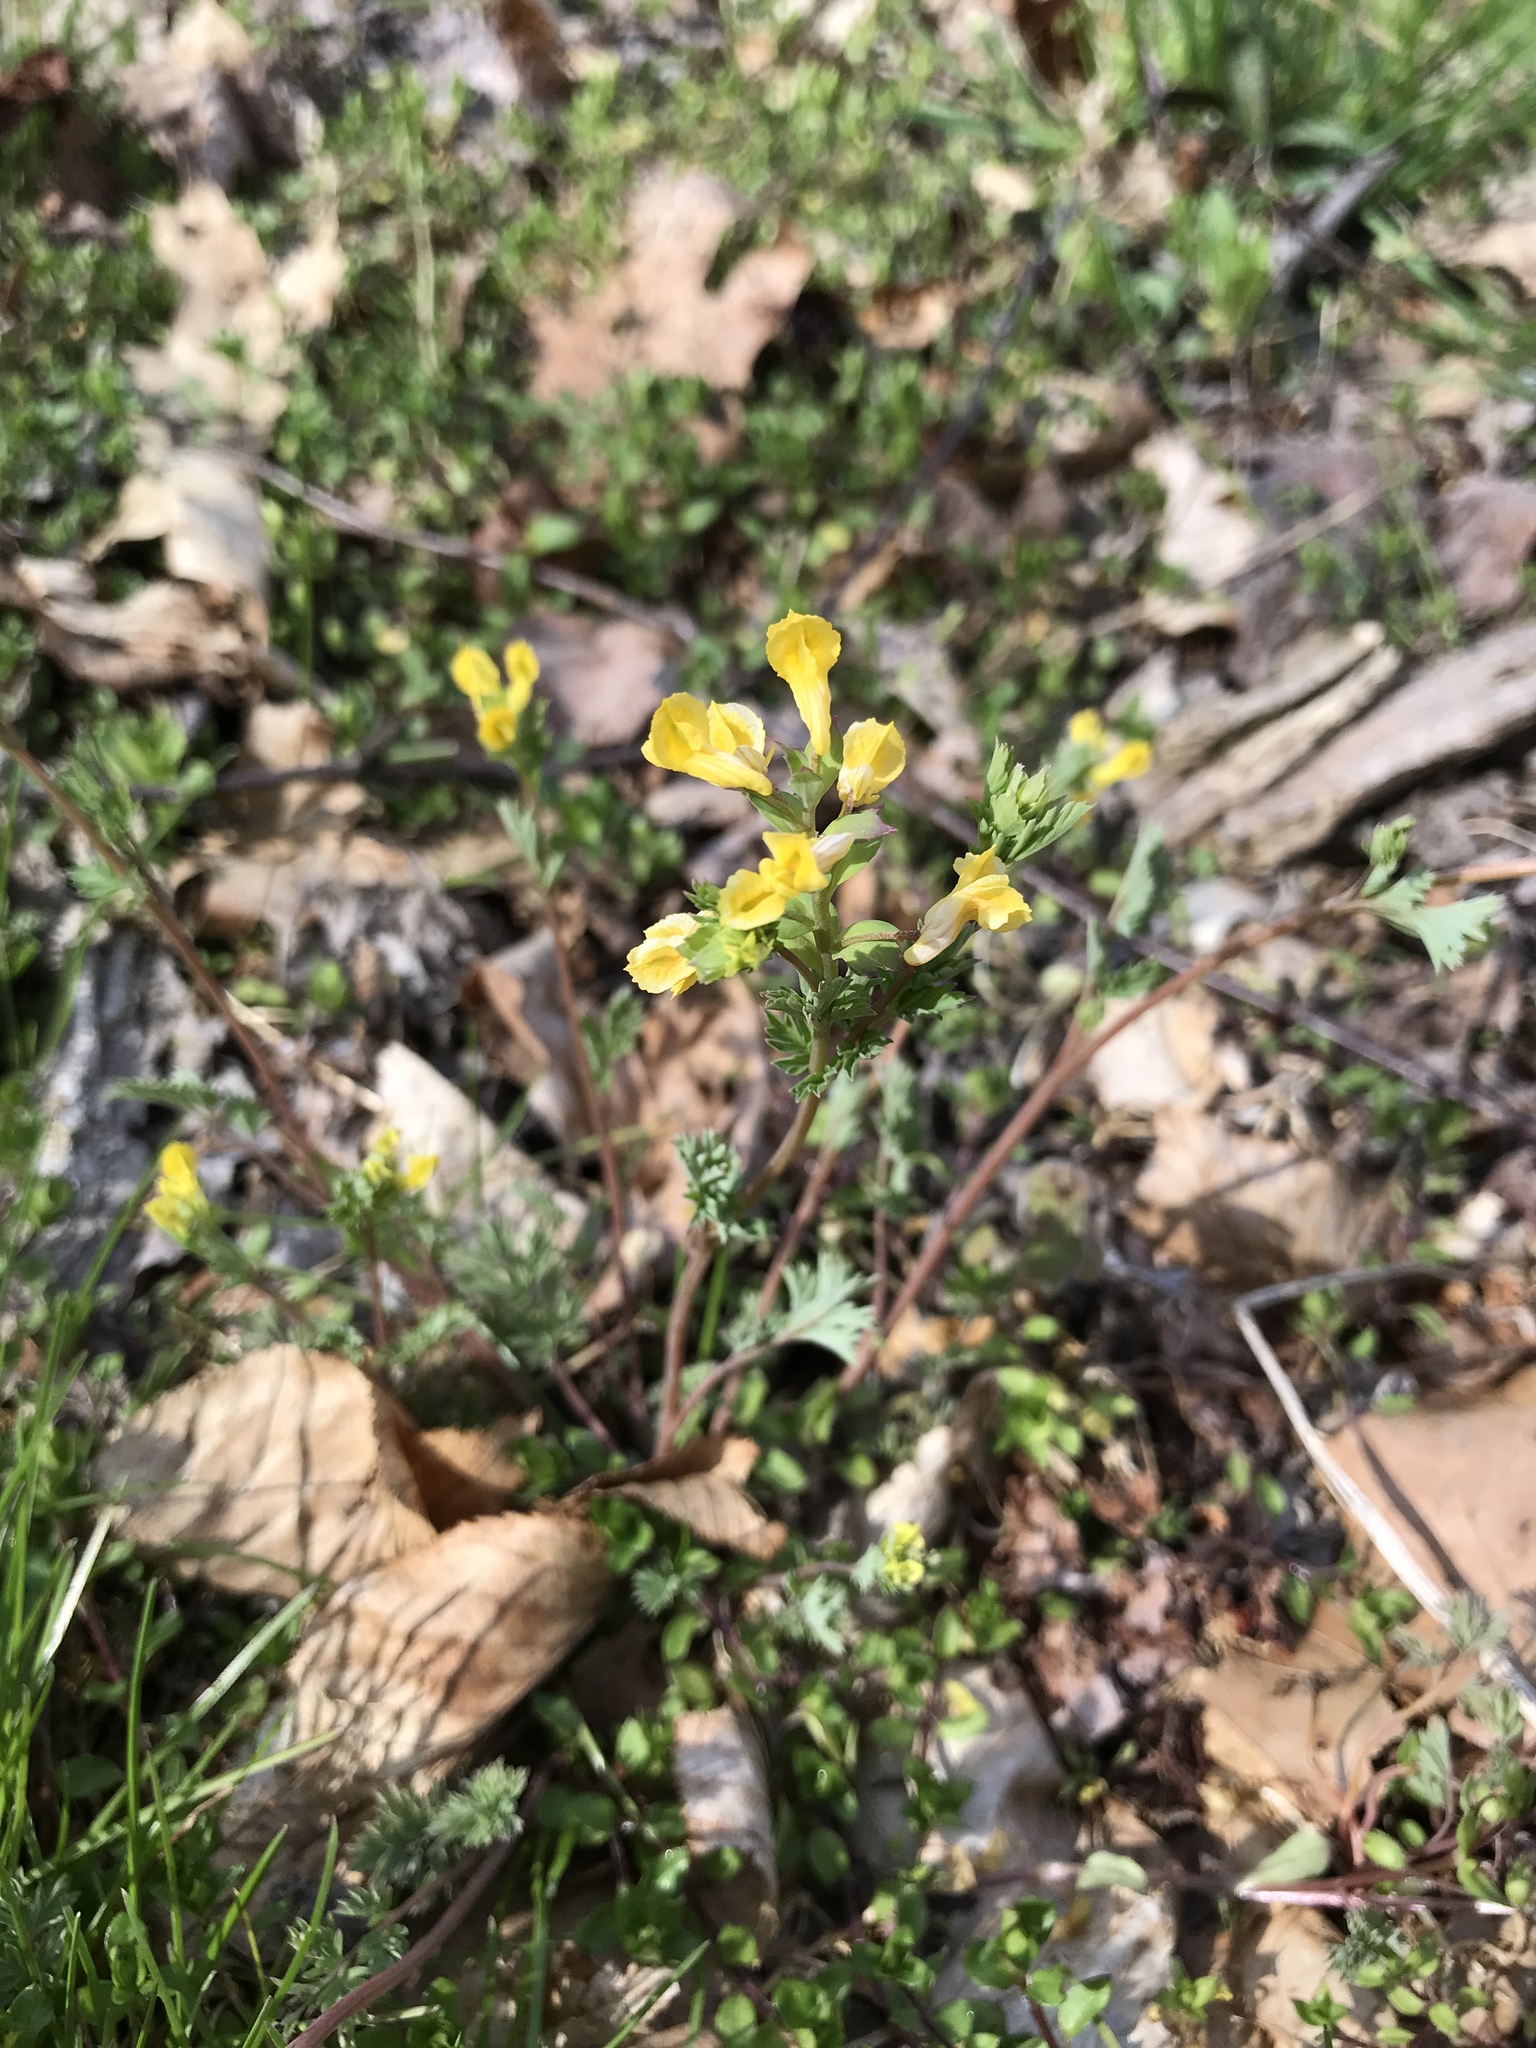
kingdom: Plantae
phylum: Tracheophyta
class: Magnoliopsida
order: Ranunculales
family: Papaveraceae
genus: Corydalis
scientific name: Corydalis flavula
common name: Yellow corydalis
